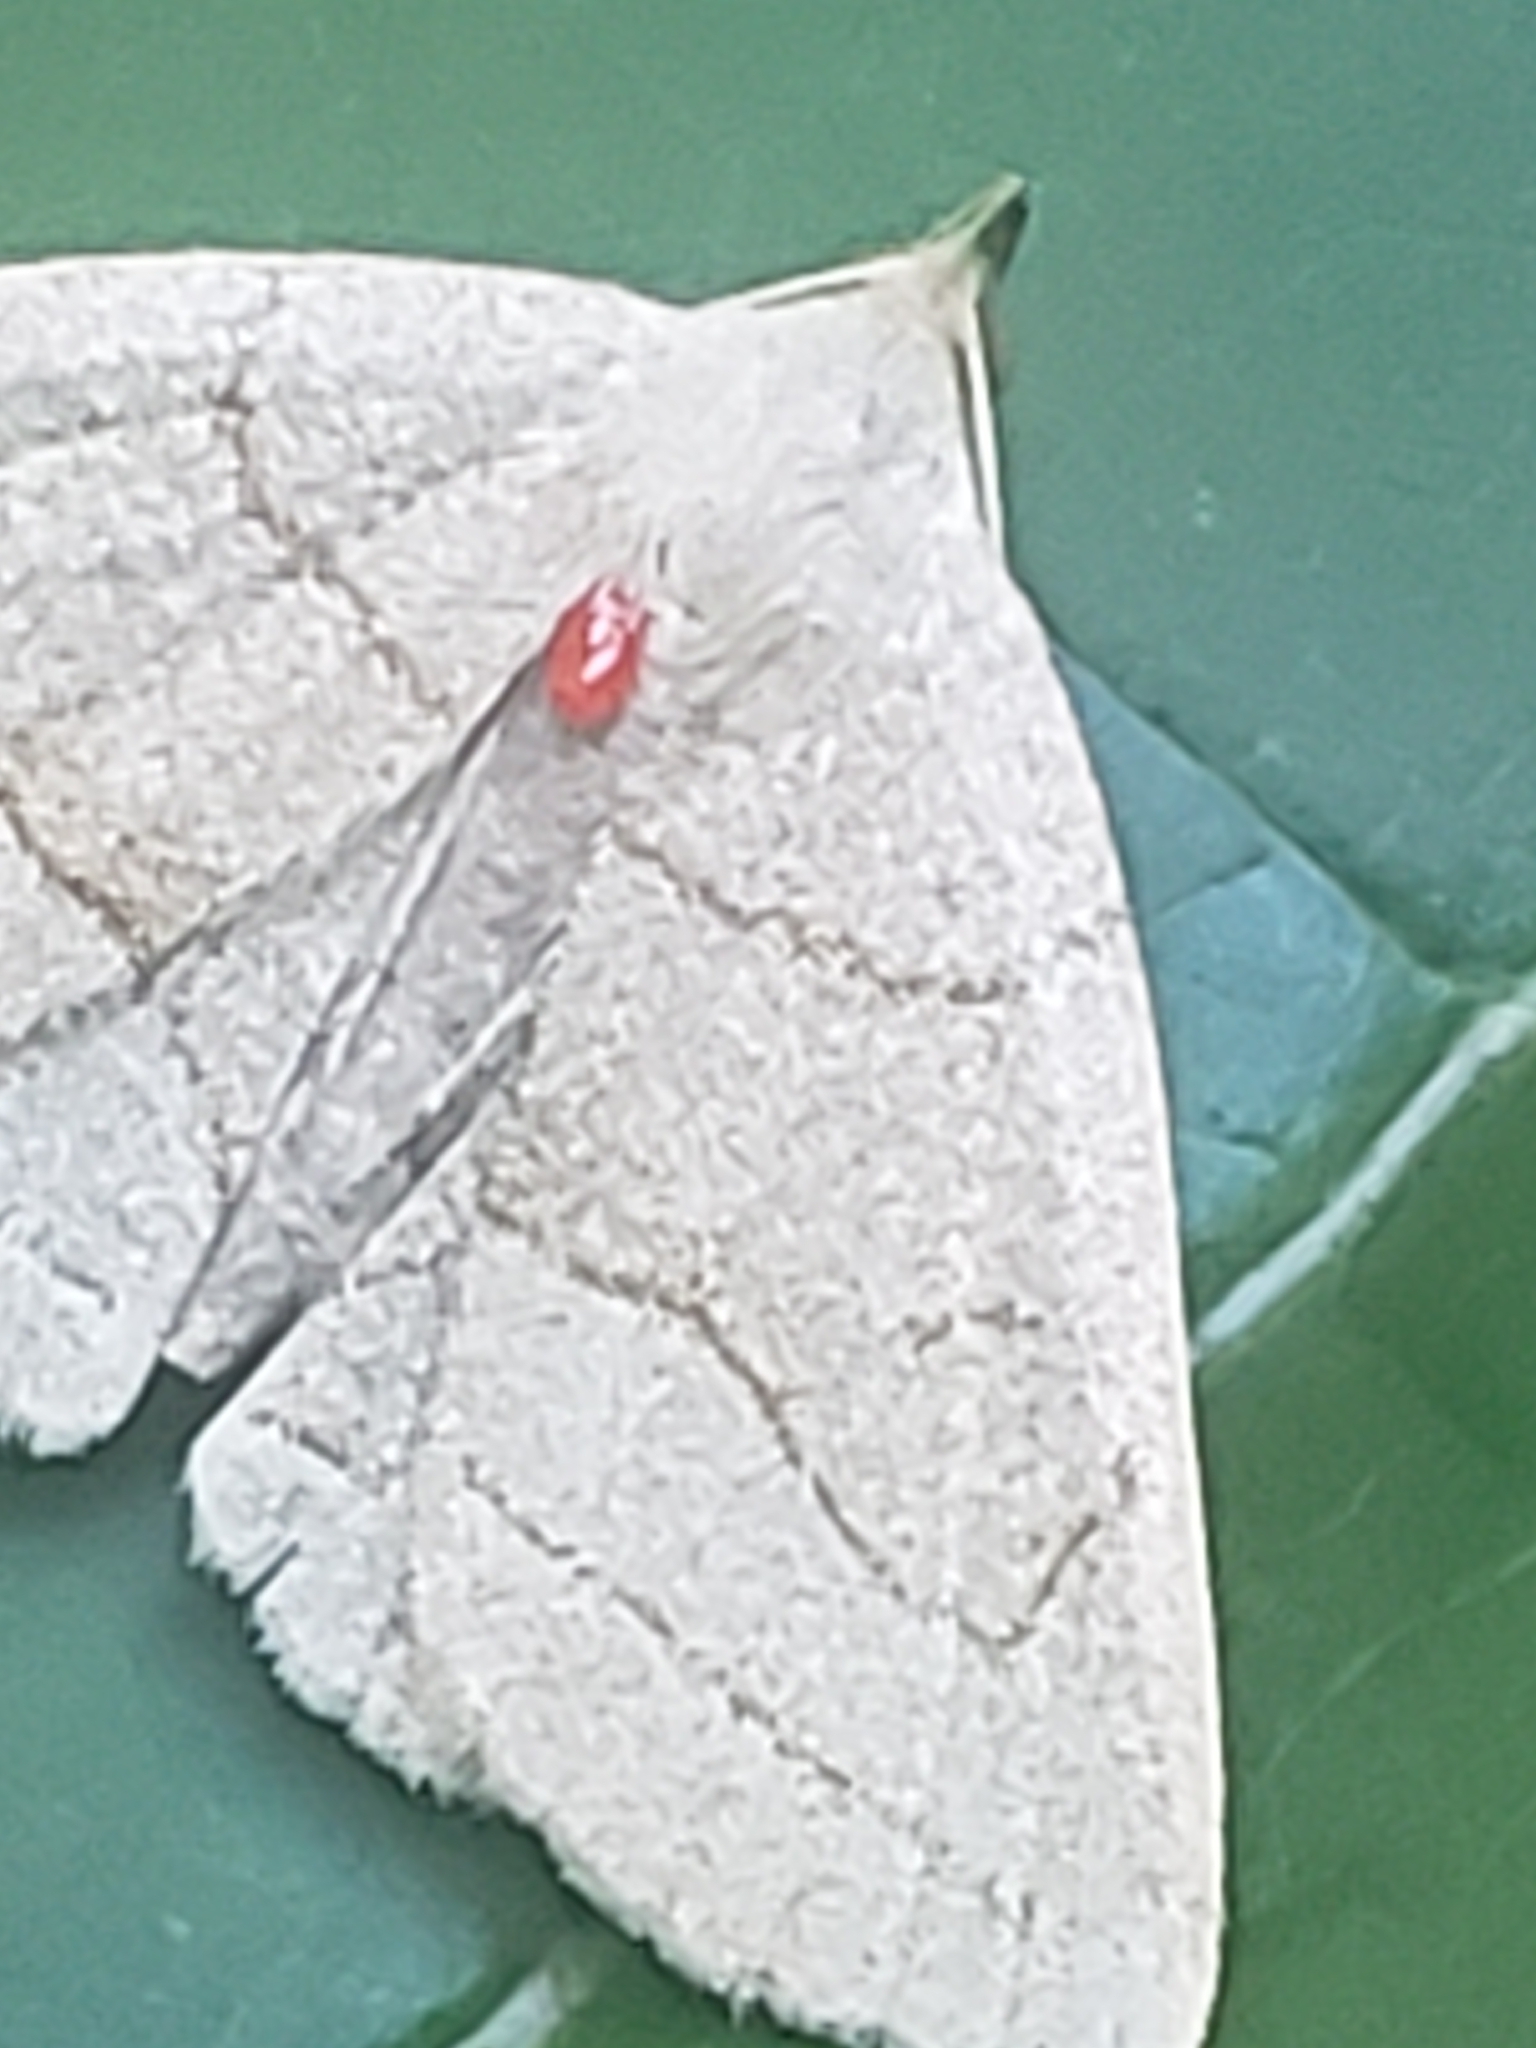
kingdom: Animalia
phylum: Arthropoda
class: Insecta
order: Lepidoptera
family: Erebidae
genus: Zanclognatha
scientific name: Zanclognatha pedipilalis
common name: Grayish fan-foot
